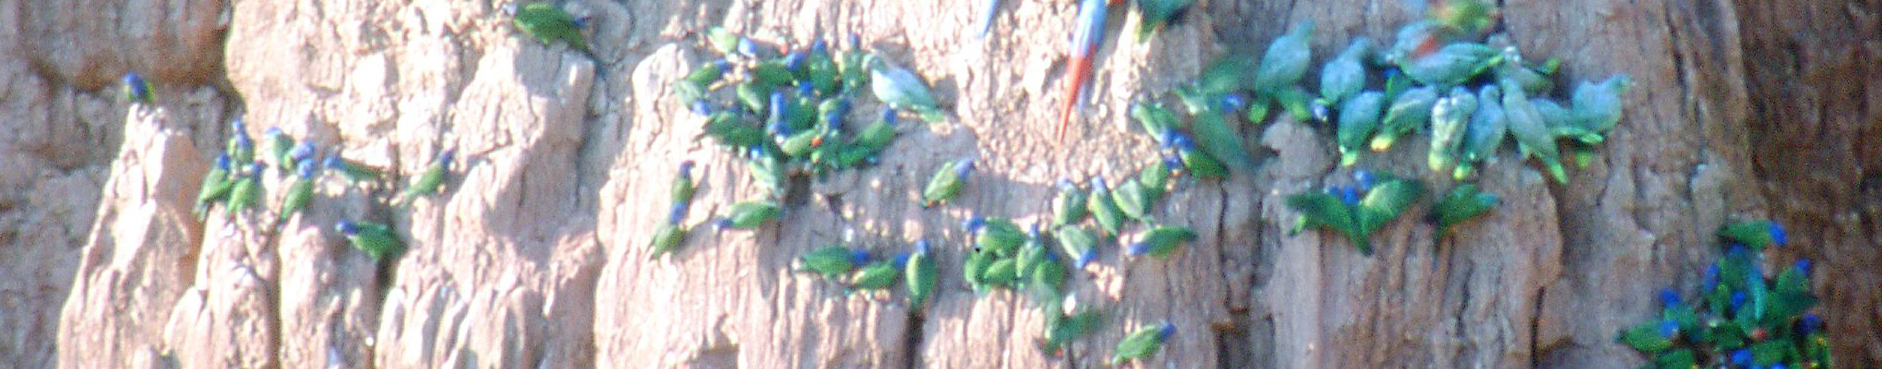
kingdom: Animalia
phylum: Chordata
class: Aves
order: Psittaciformes
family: Psittacidae
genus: Pionus
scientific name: Pionus menstruus
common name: Blue-headed parrot
